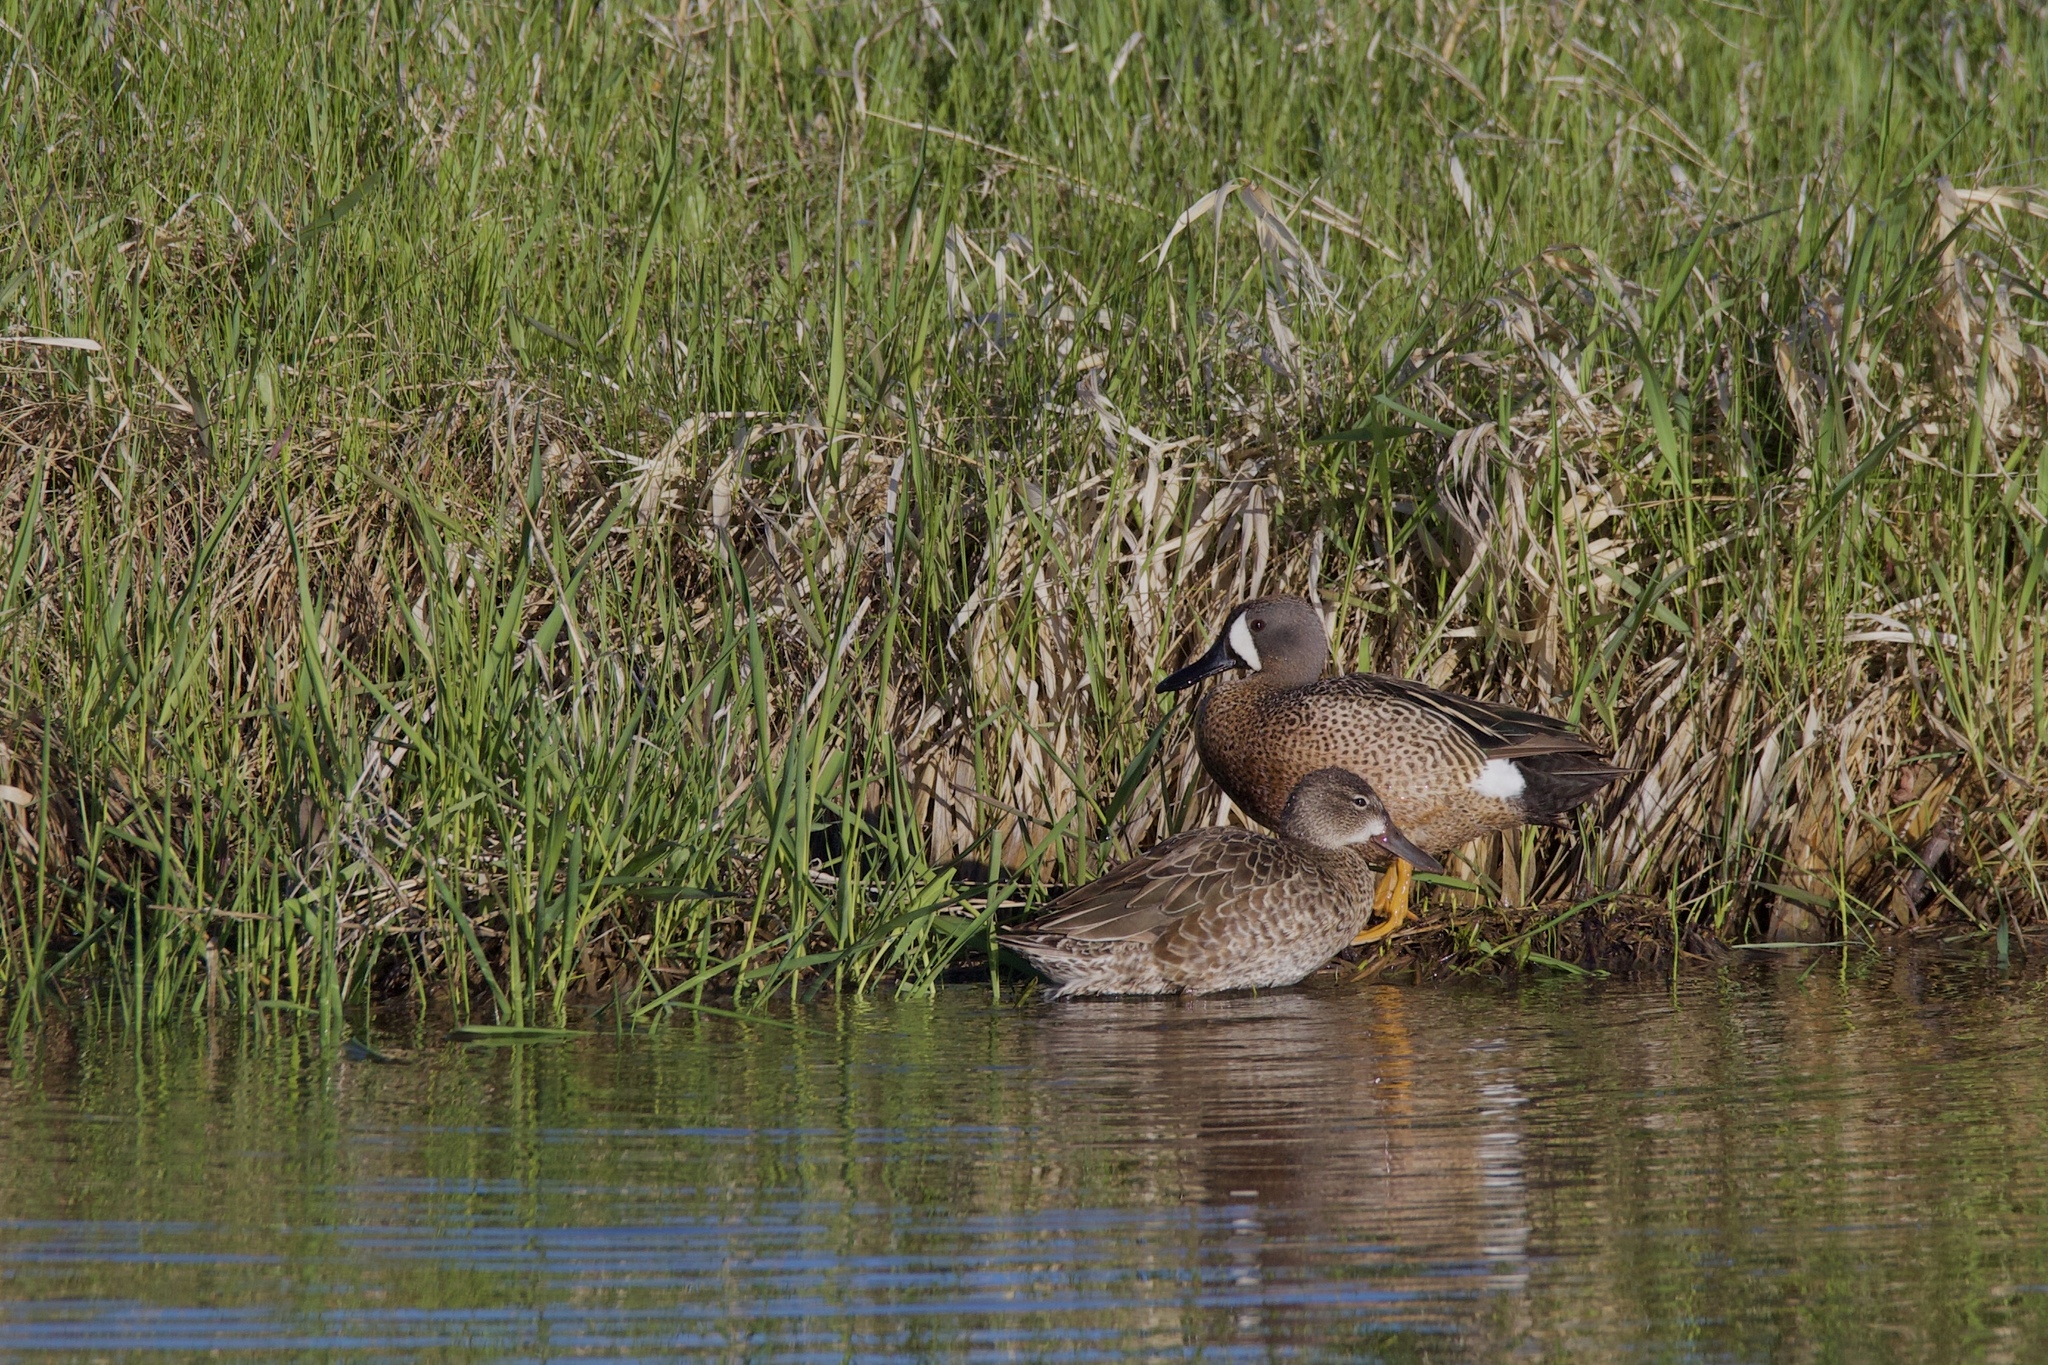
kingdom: Animalia
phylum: Chordata
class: Aves
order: Anseriformes
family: Anatidae
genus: Spatula
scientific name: Spatula discors
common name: Blue-winged teal
